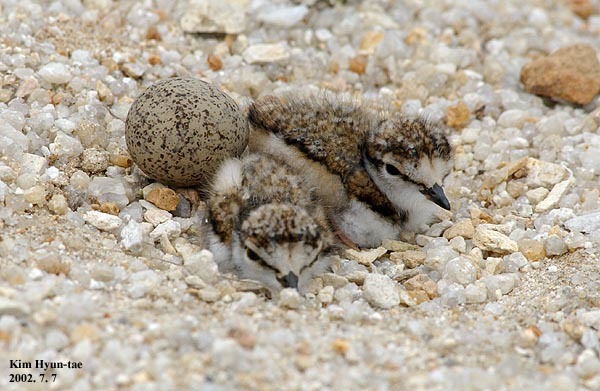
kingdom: Animalia
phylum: Chordata
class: Aves
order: Charadriiformes
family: Charadriidae
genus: Charadrius
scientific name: Charadrius dubius
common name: Little ringed plover
